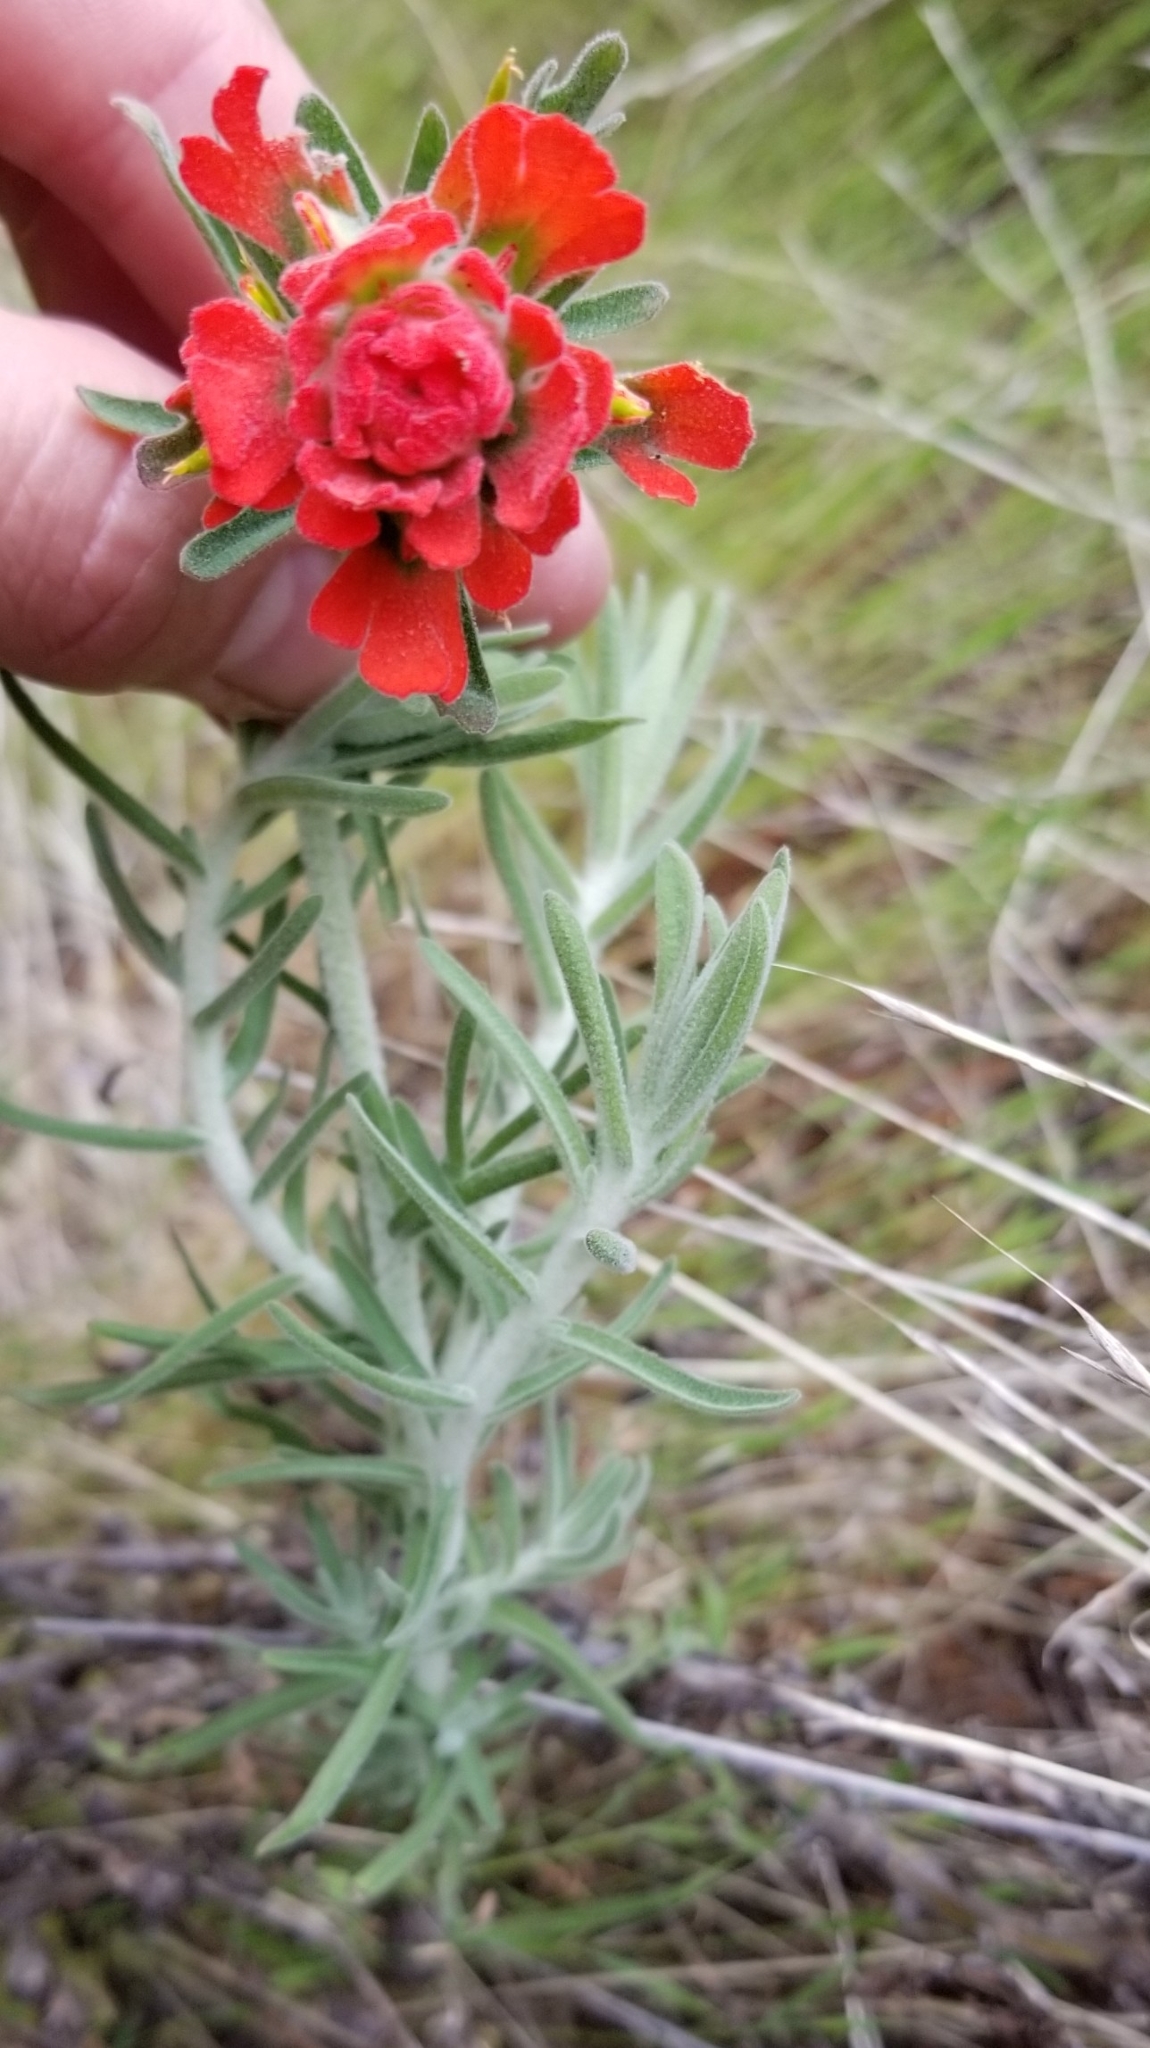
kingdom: Plantae
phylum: Tracheophyta
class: Magnoliopsida
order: Lamiales
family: Orobanchaceae
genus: Castilleja
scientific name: Castilleja foliolosa
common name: Woolly indian paintbrush
